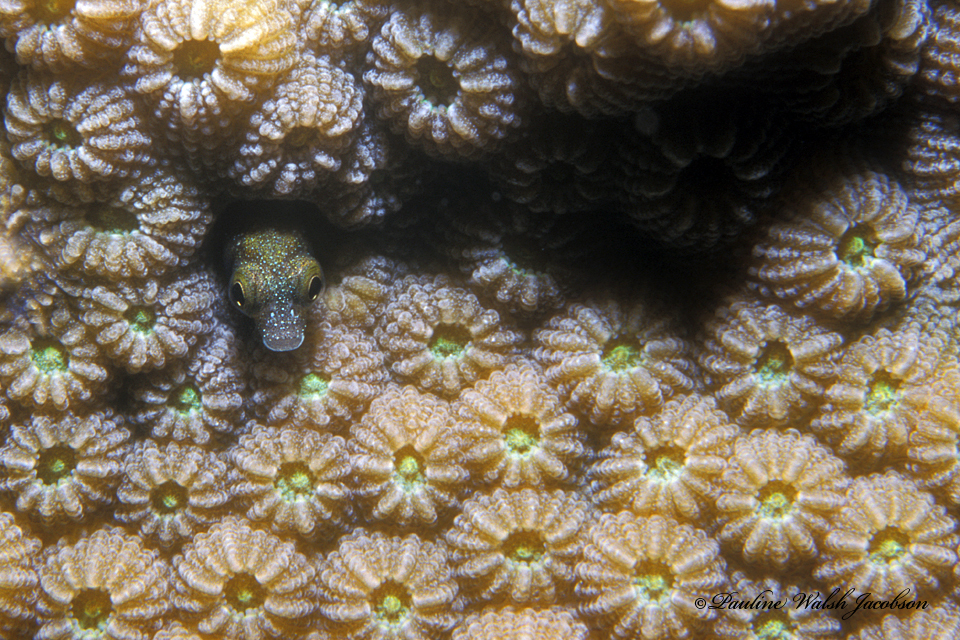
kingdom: Animalia
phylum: Chordata
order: Perciformes
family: Chaenopsidae
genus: Acanthemblemaria
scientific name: Acanthemblemaria spinosa
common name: Spinyhead blenny
